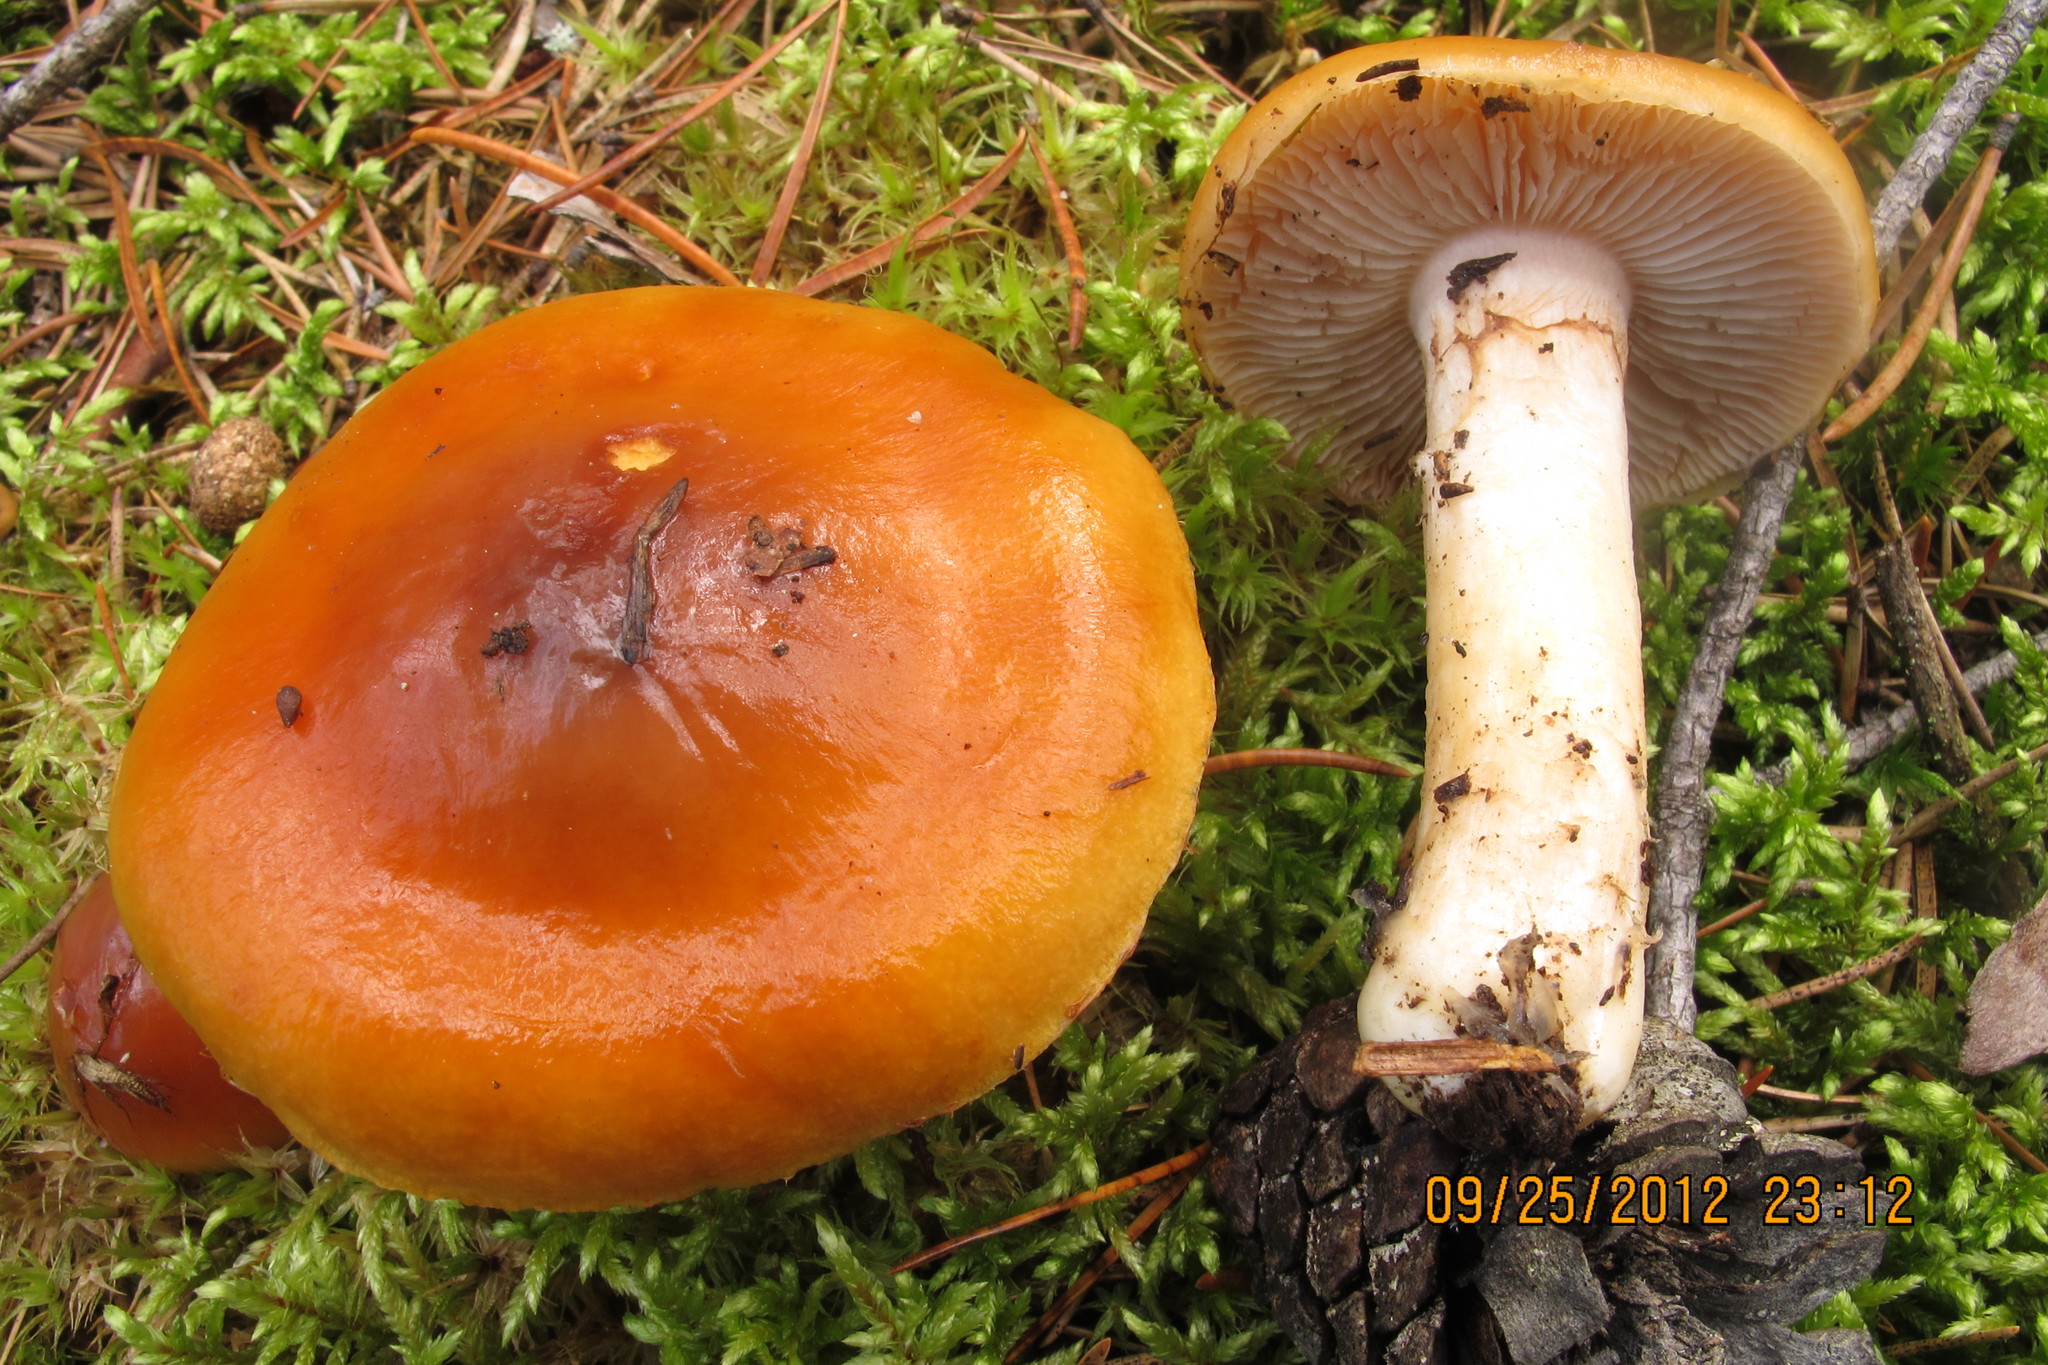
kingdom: Fungi
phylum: Basidiomycota
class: Agaricomycetes
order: Agaricales
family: Cortinariaceae
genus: Cortinarius
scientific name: Cortinarius mucosus
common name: Orange webcap
